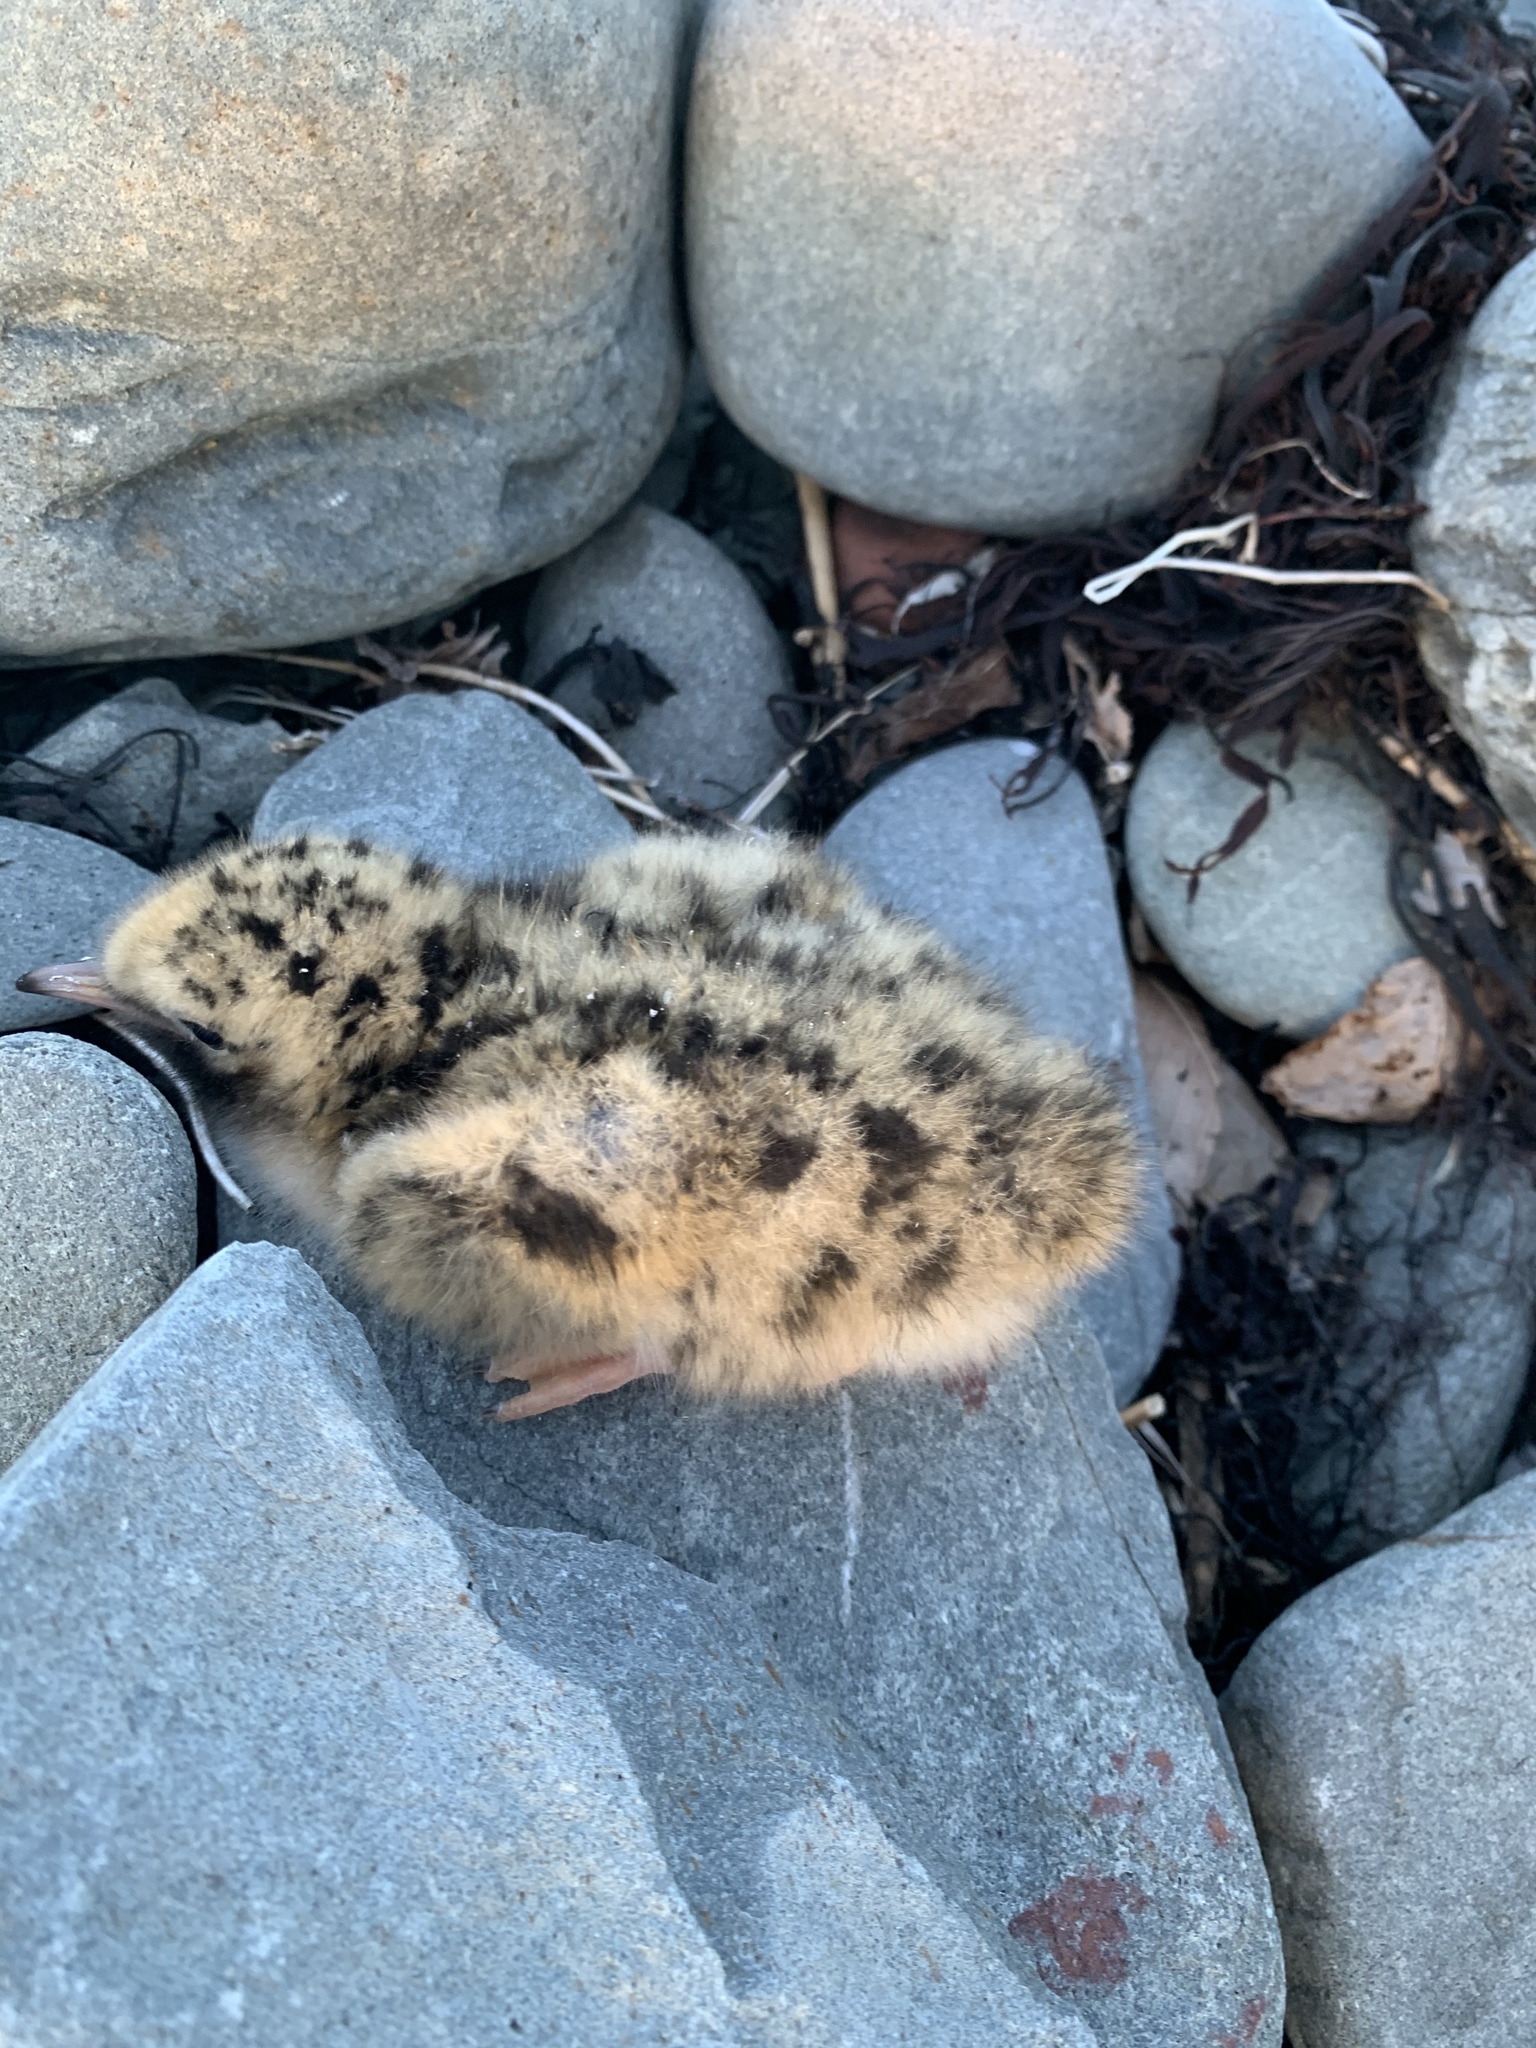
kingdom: Animalia
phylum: Chordata
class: Aves
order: Charadriiformes
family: Laridae
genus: Sterna
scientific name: Sterna hirundo
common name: Common tern
